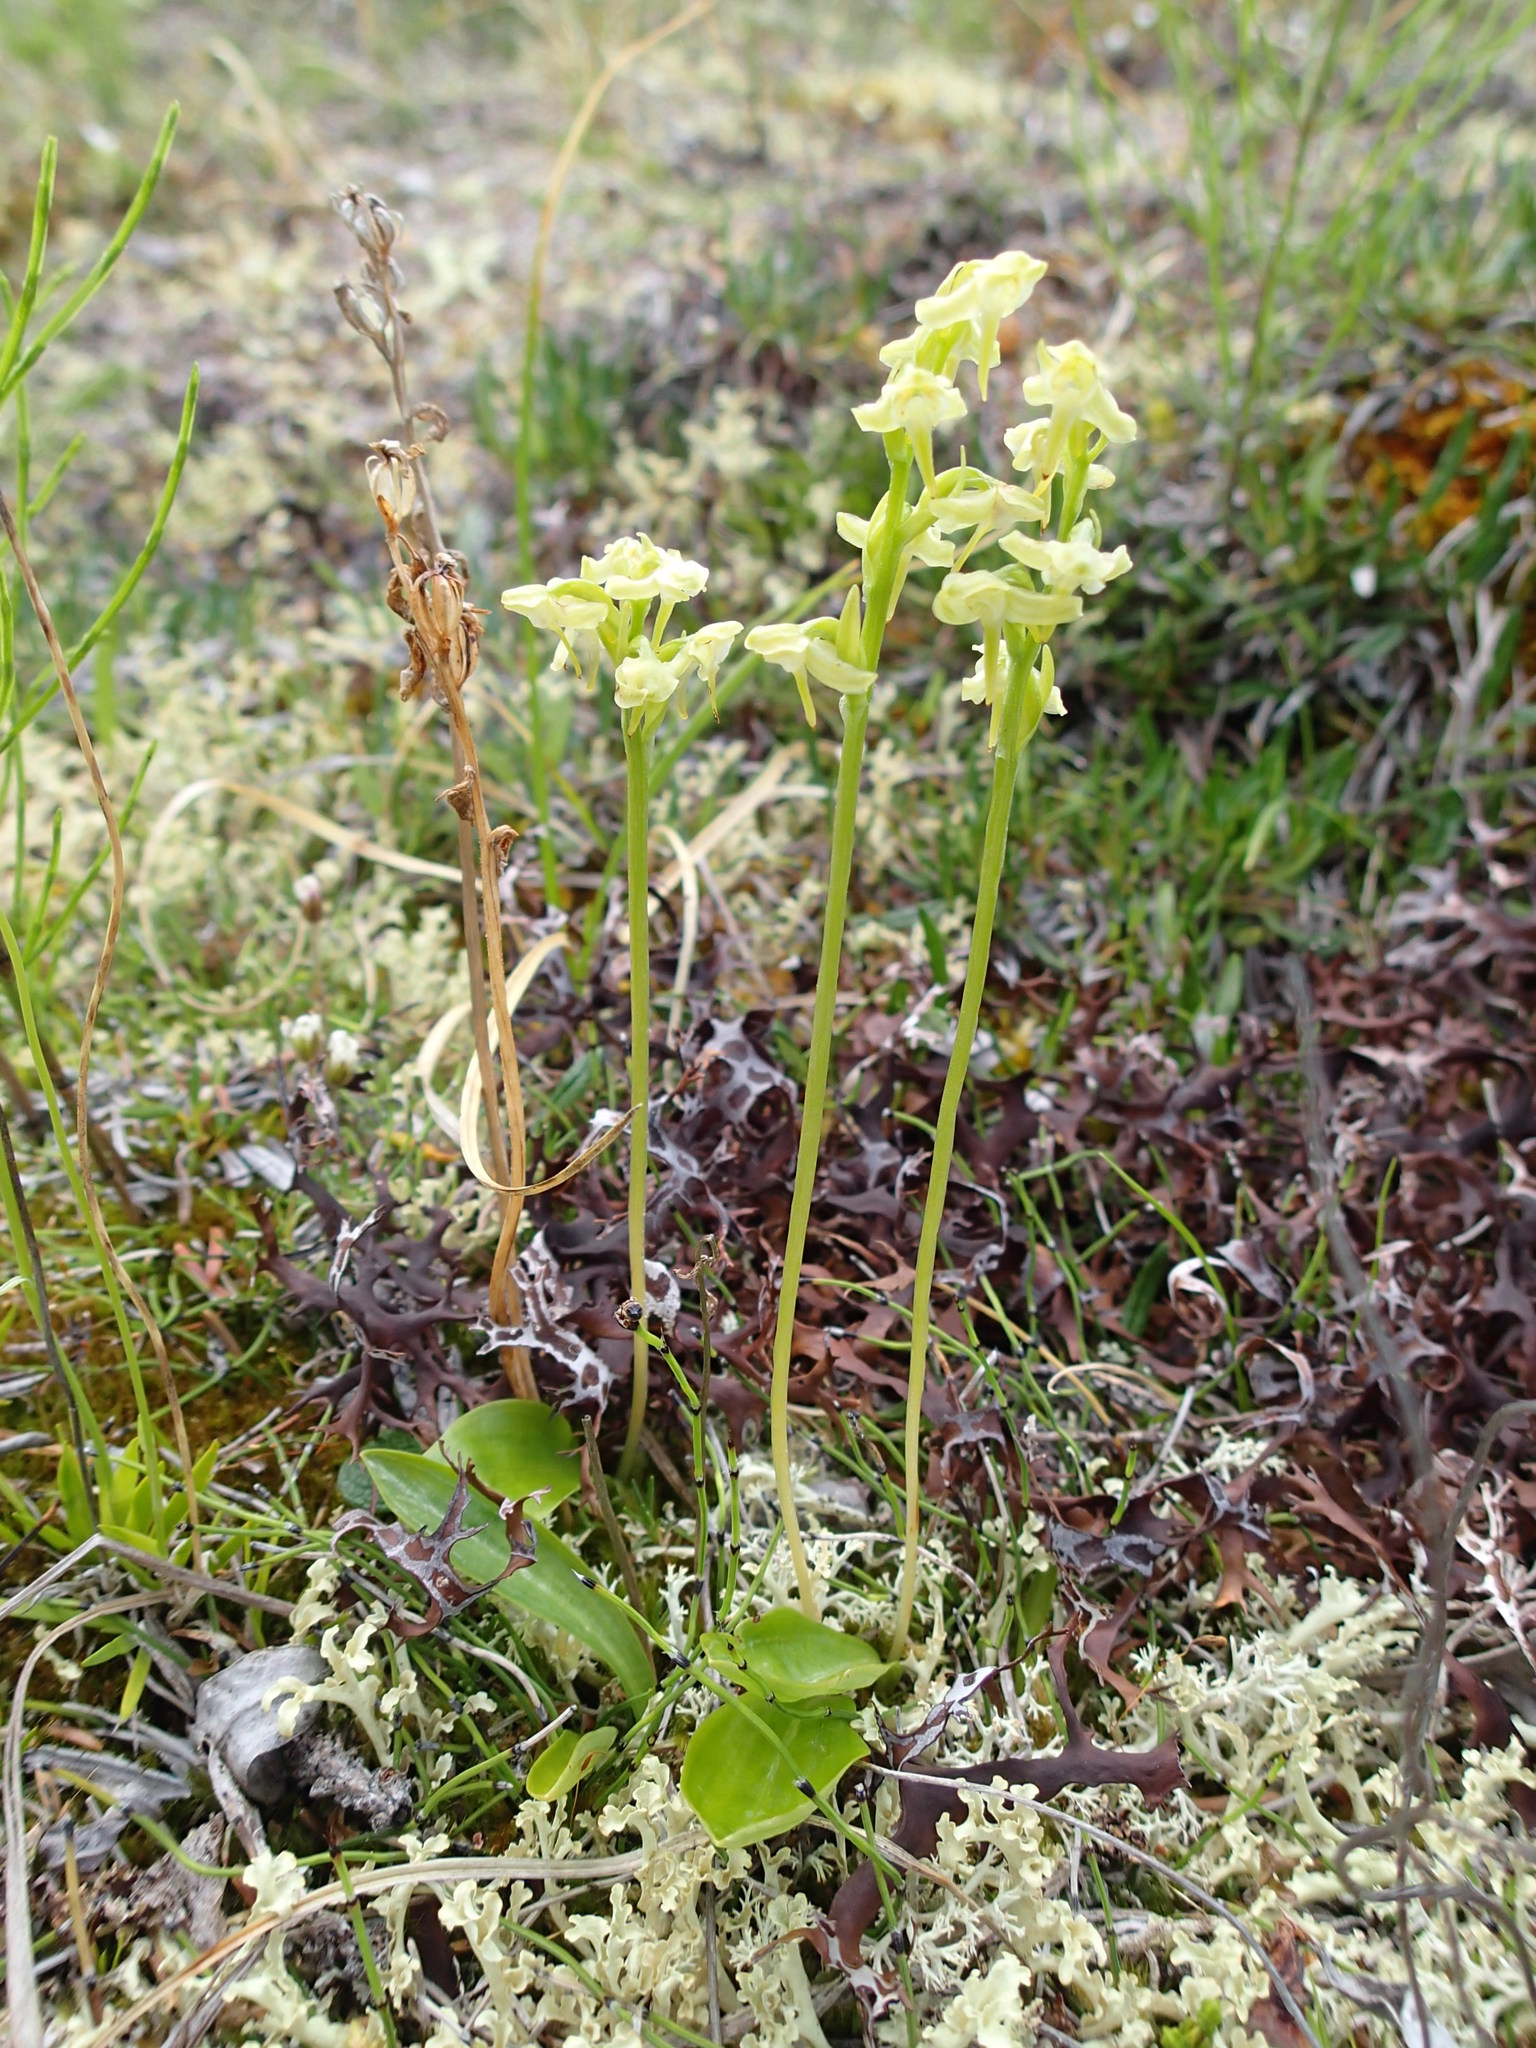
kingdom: Plantae
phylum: Tracheophyta
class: Liliopsida
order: Asparagales
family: Orchidaceae
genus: Platanthera
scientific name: Platanthera obtusata
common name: Blunt bog orchid
